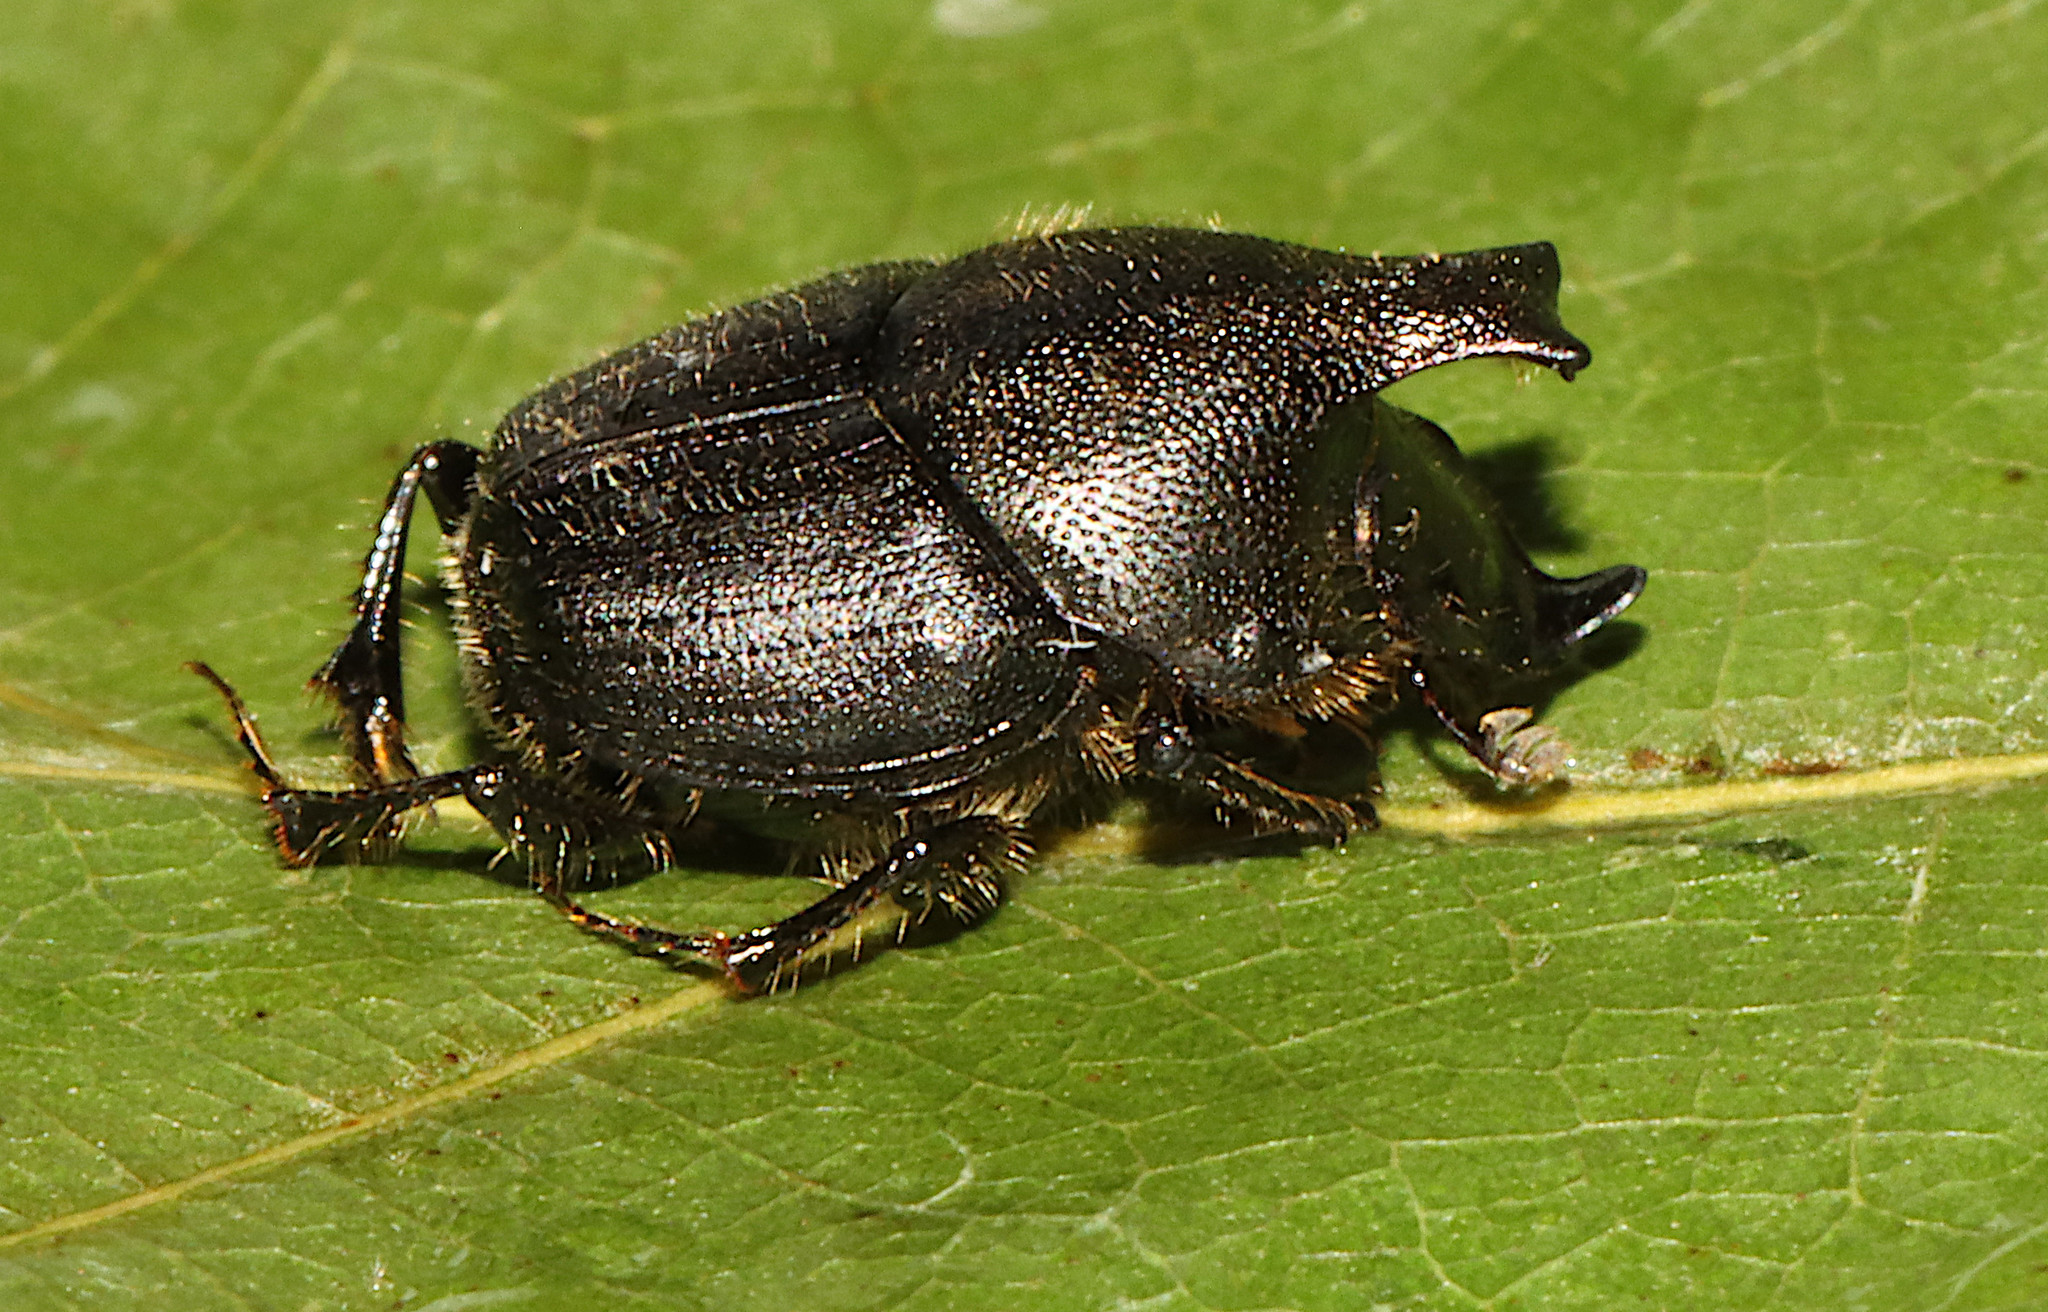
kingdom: Animalia
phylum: Arthropoda
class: Insecta
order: Coleoptera
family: Scarabaeidae
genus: Onthophagus
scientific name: Onthophagus hecate
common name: Scooped scarab
